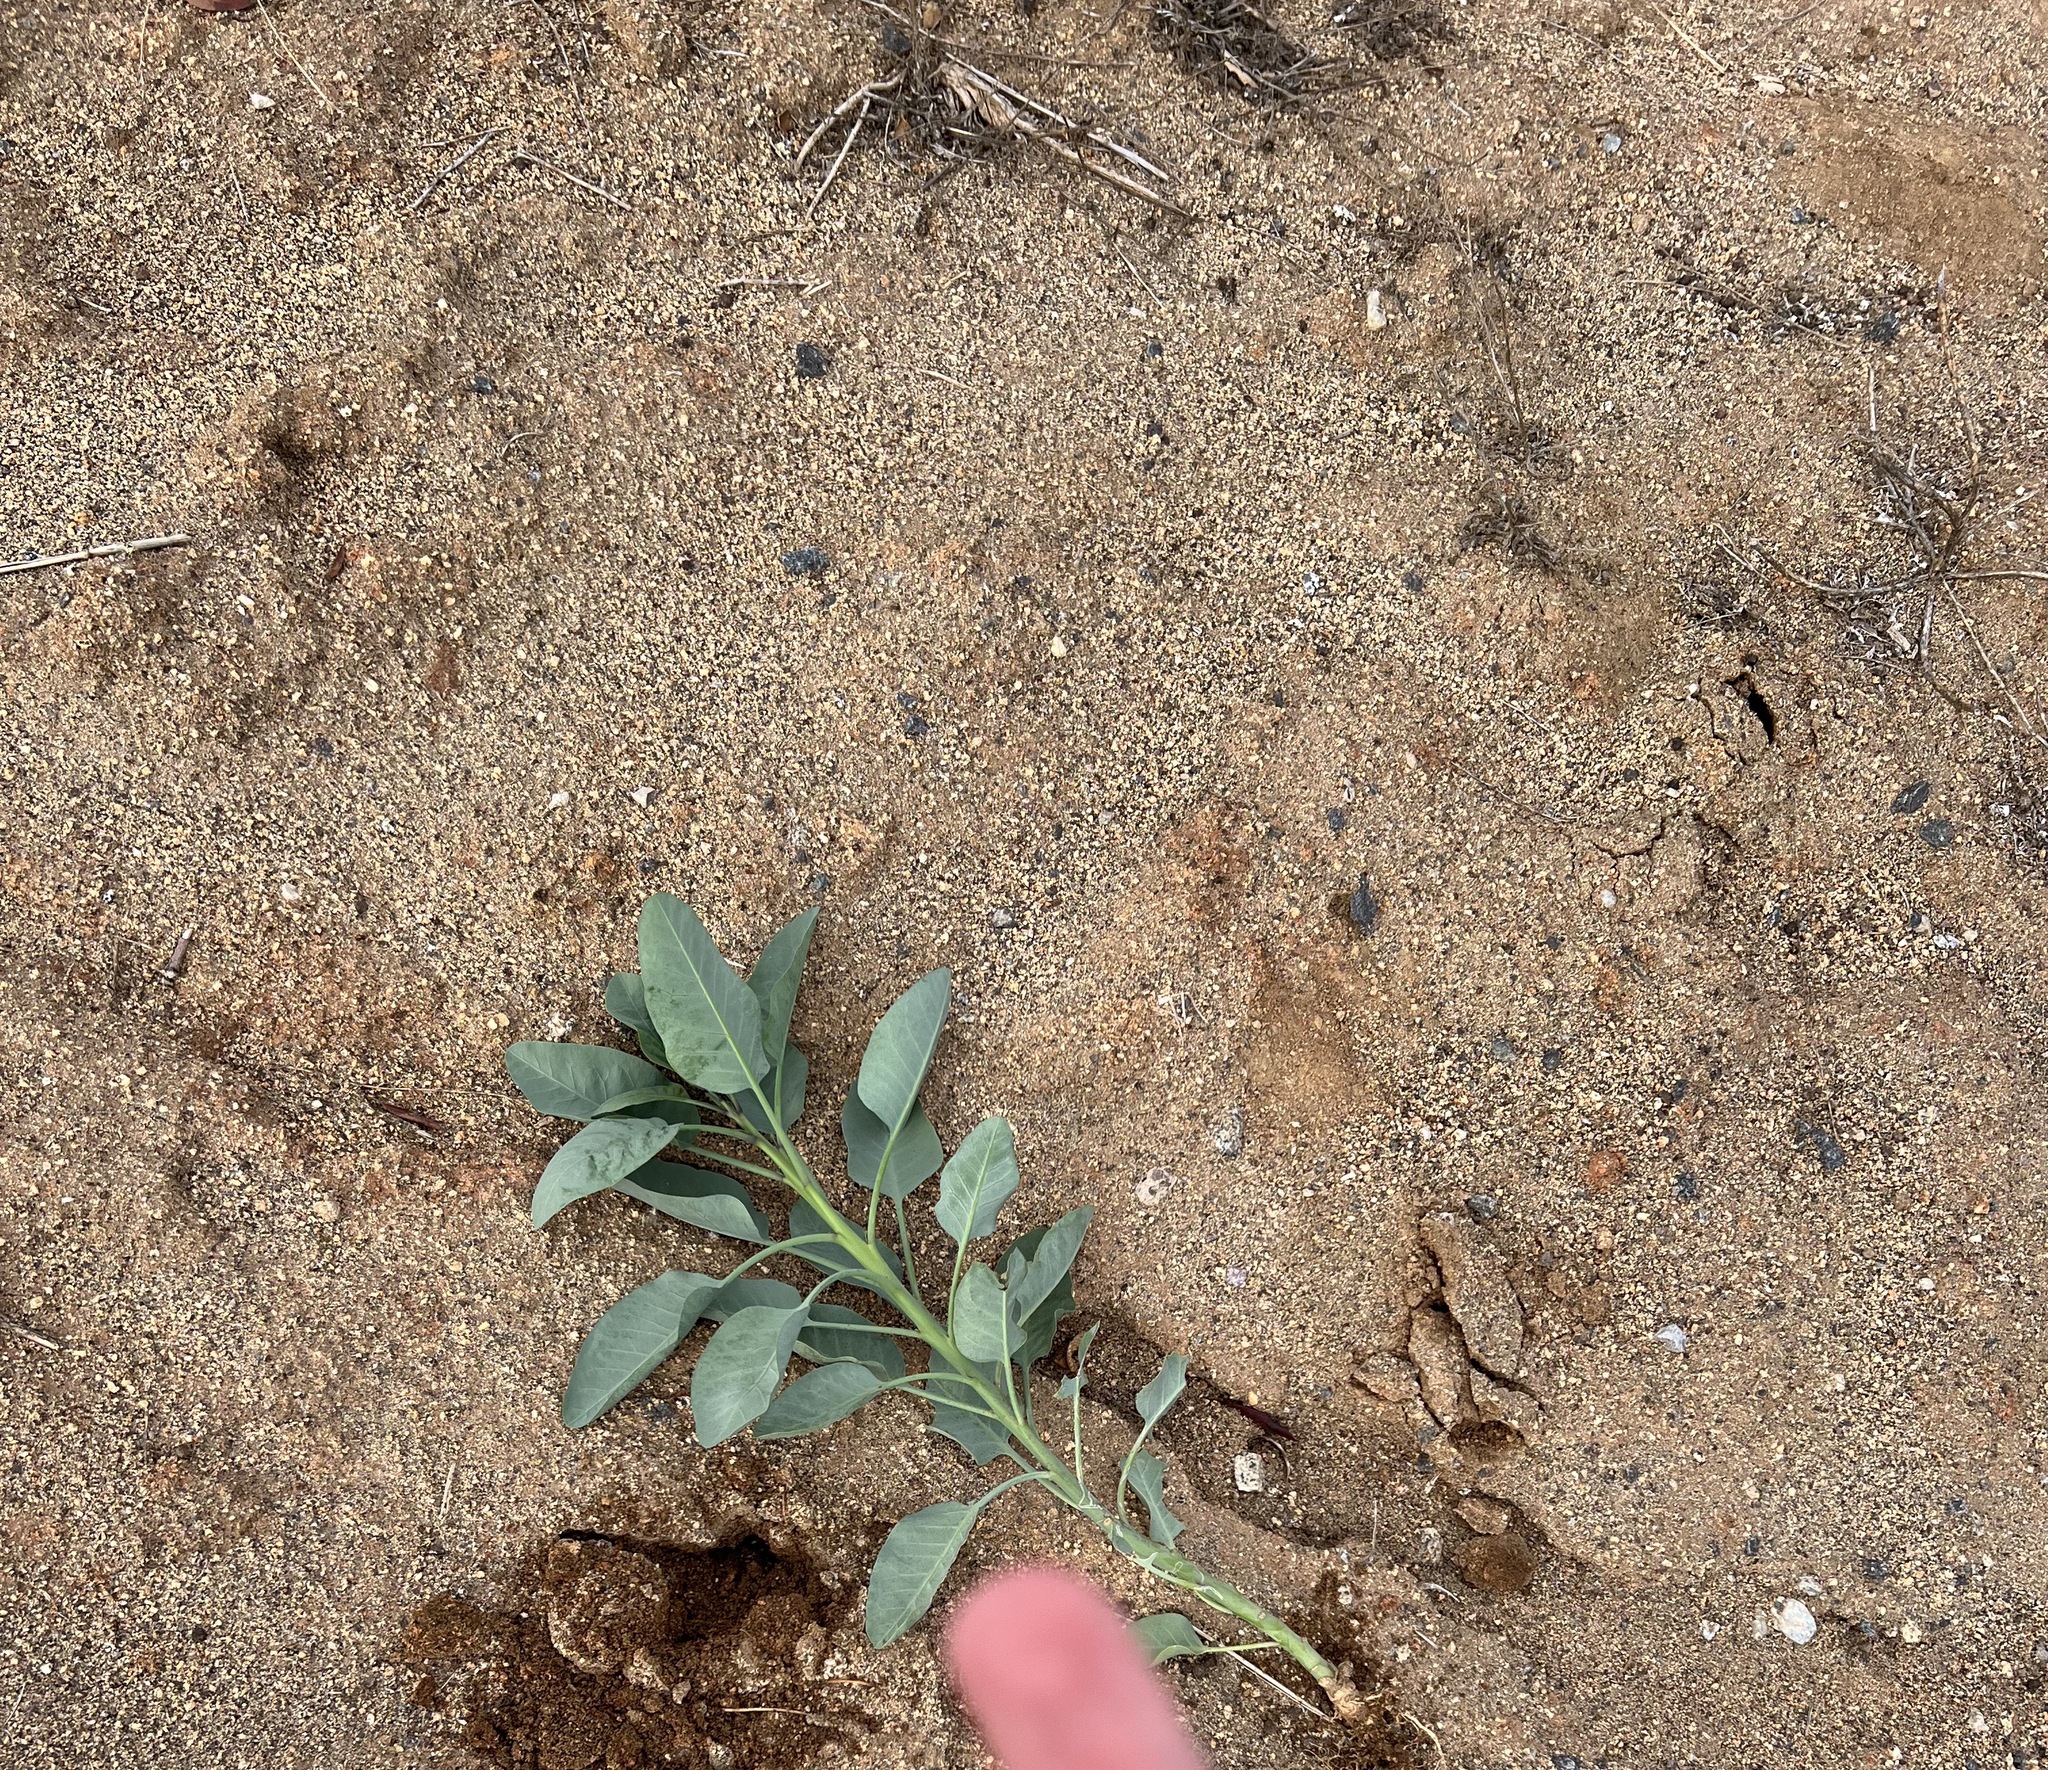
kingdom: Plantae
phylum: Tracheophyta
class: Magnoliopsida
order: Solanales
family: Solanaceae
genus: Nicotiana
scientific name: Nicotiana glauca
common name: Tree tobacco
